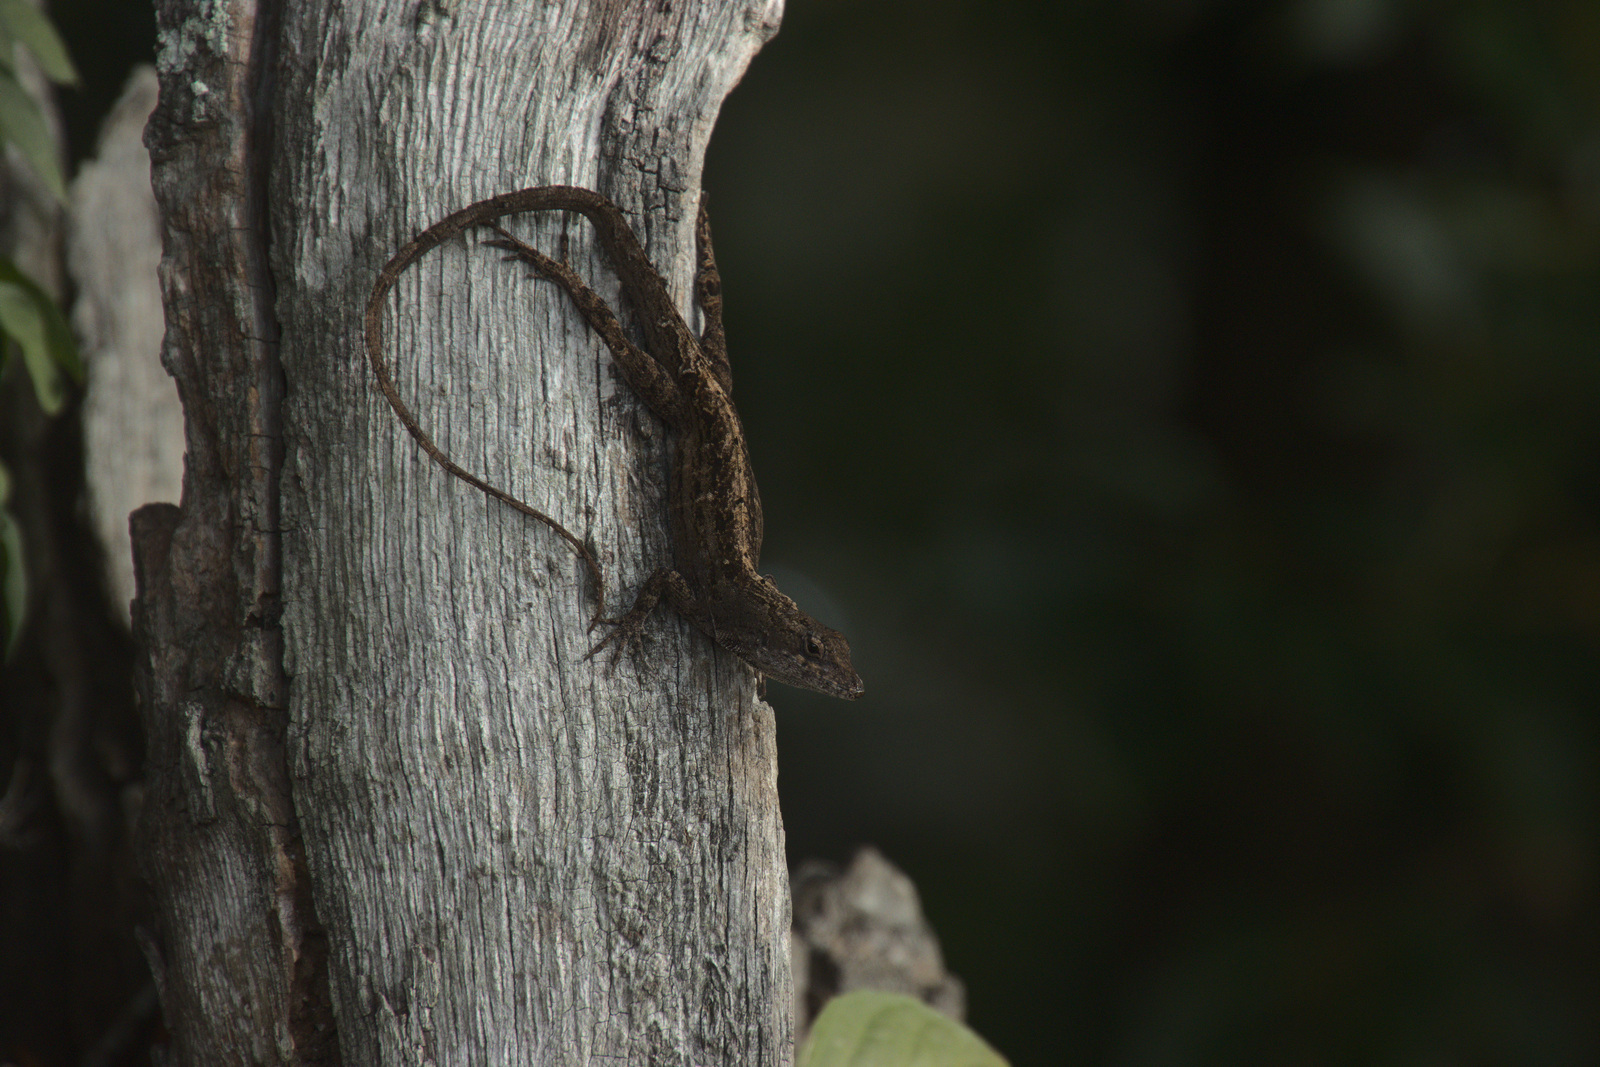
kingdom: Animalia
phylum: Chordata
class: Squamata
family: Dactyloidae
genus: Anolis
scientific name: Anolis sagrei
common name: Brown anole
